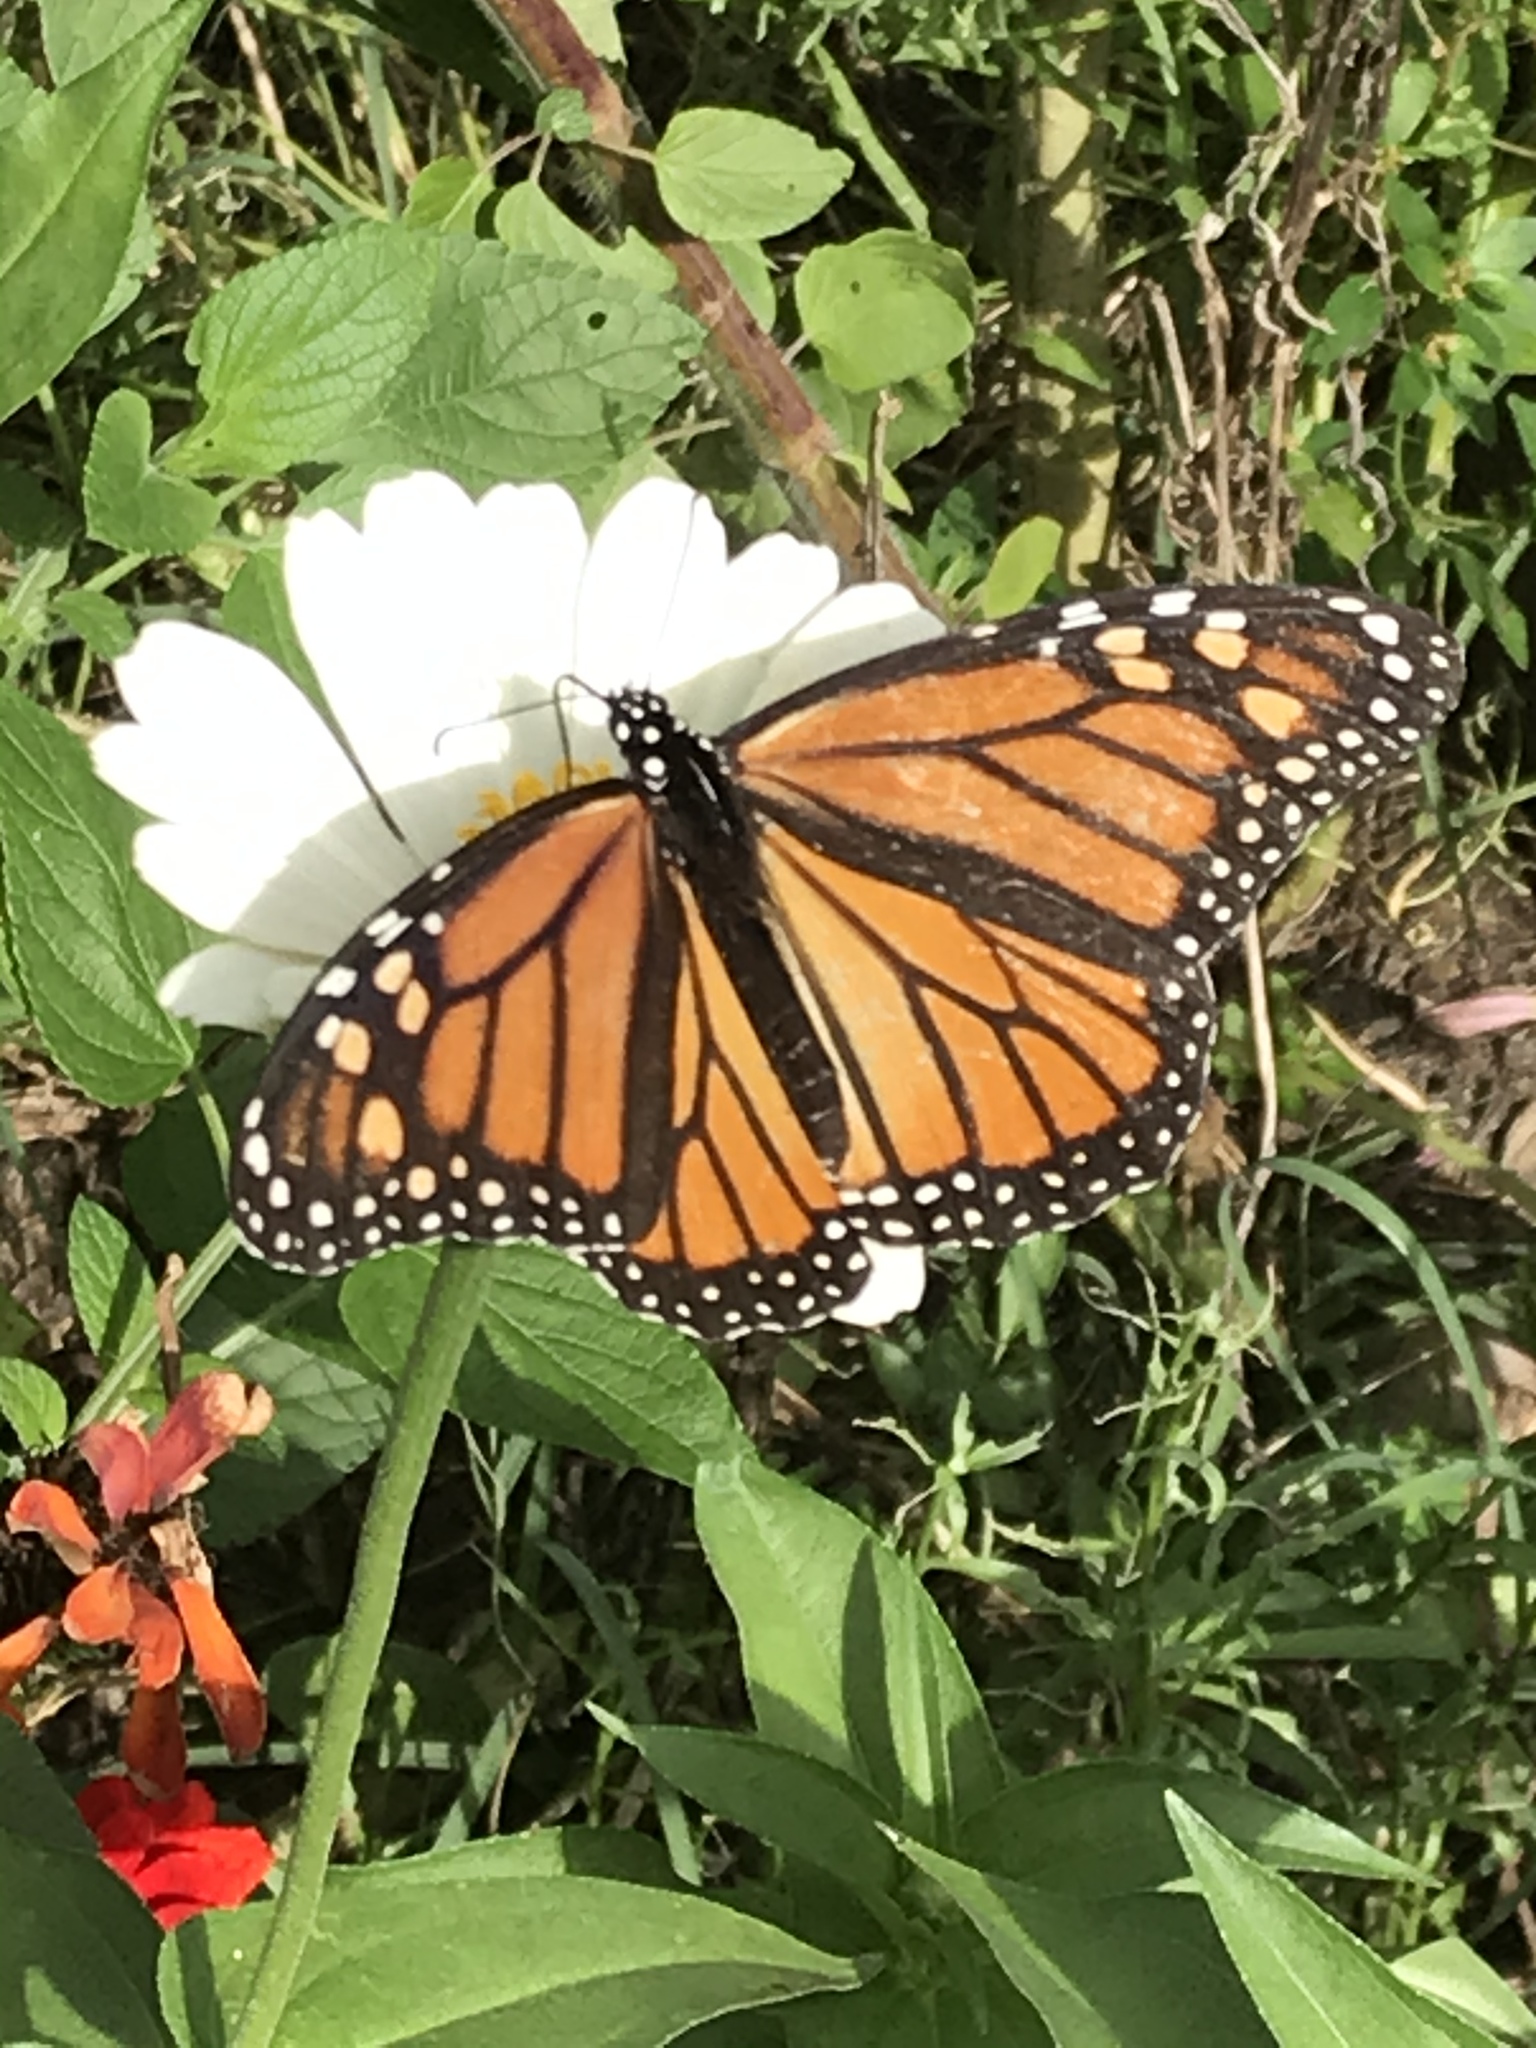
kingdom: Animalia
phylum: Arthropoda
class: Insecta
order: Lepidoptera
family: Nymphalidae
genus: Danaus
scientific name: Danaus plexippus
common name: Monarch
